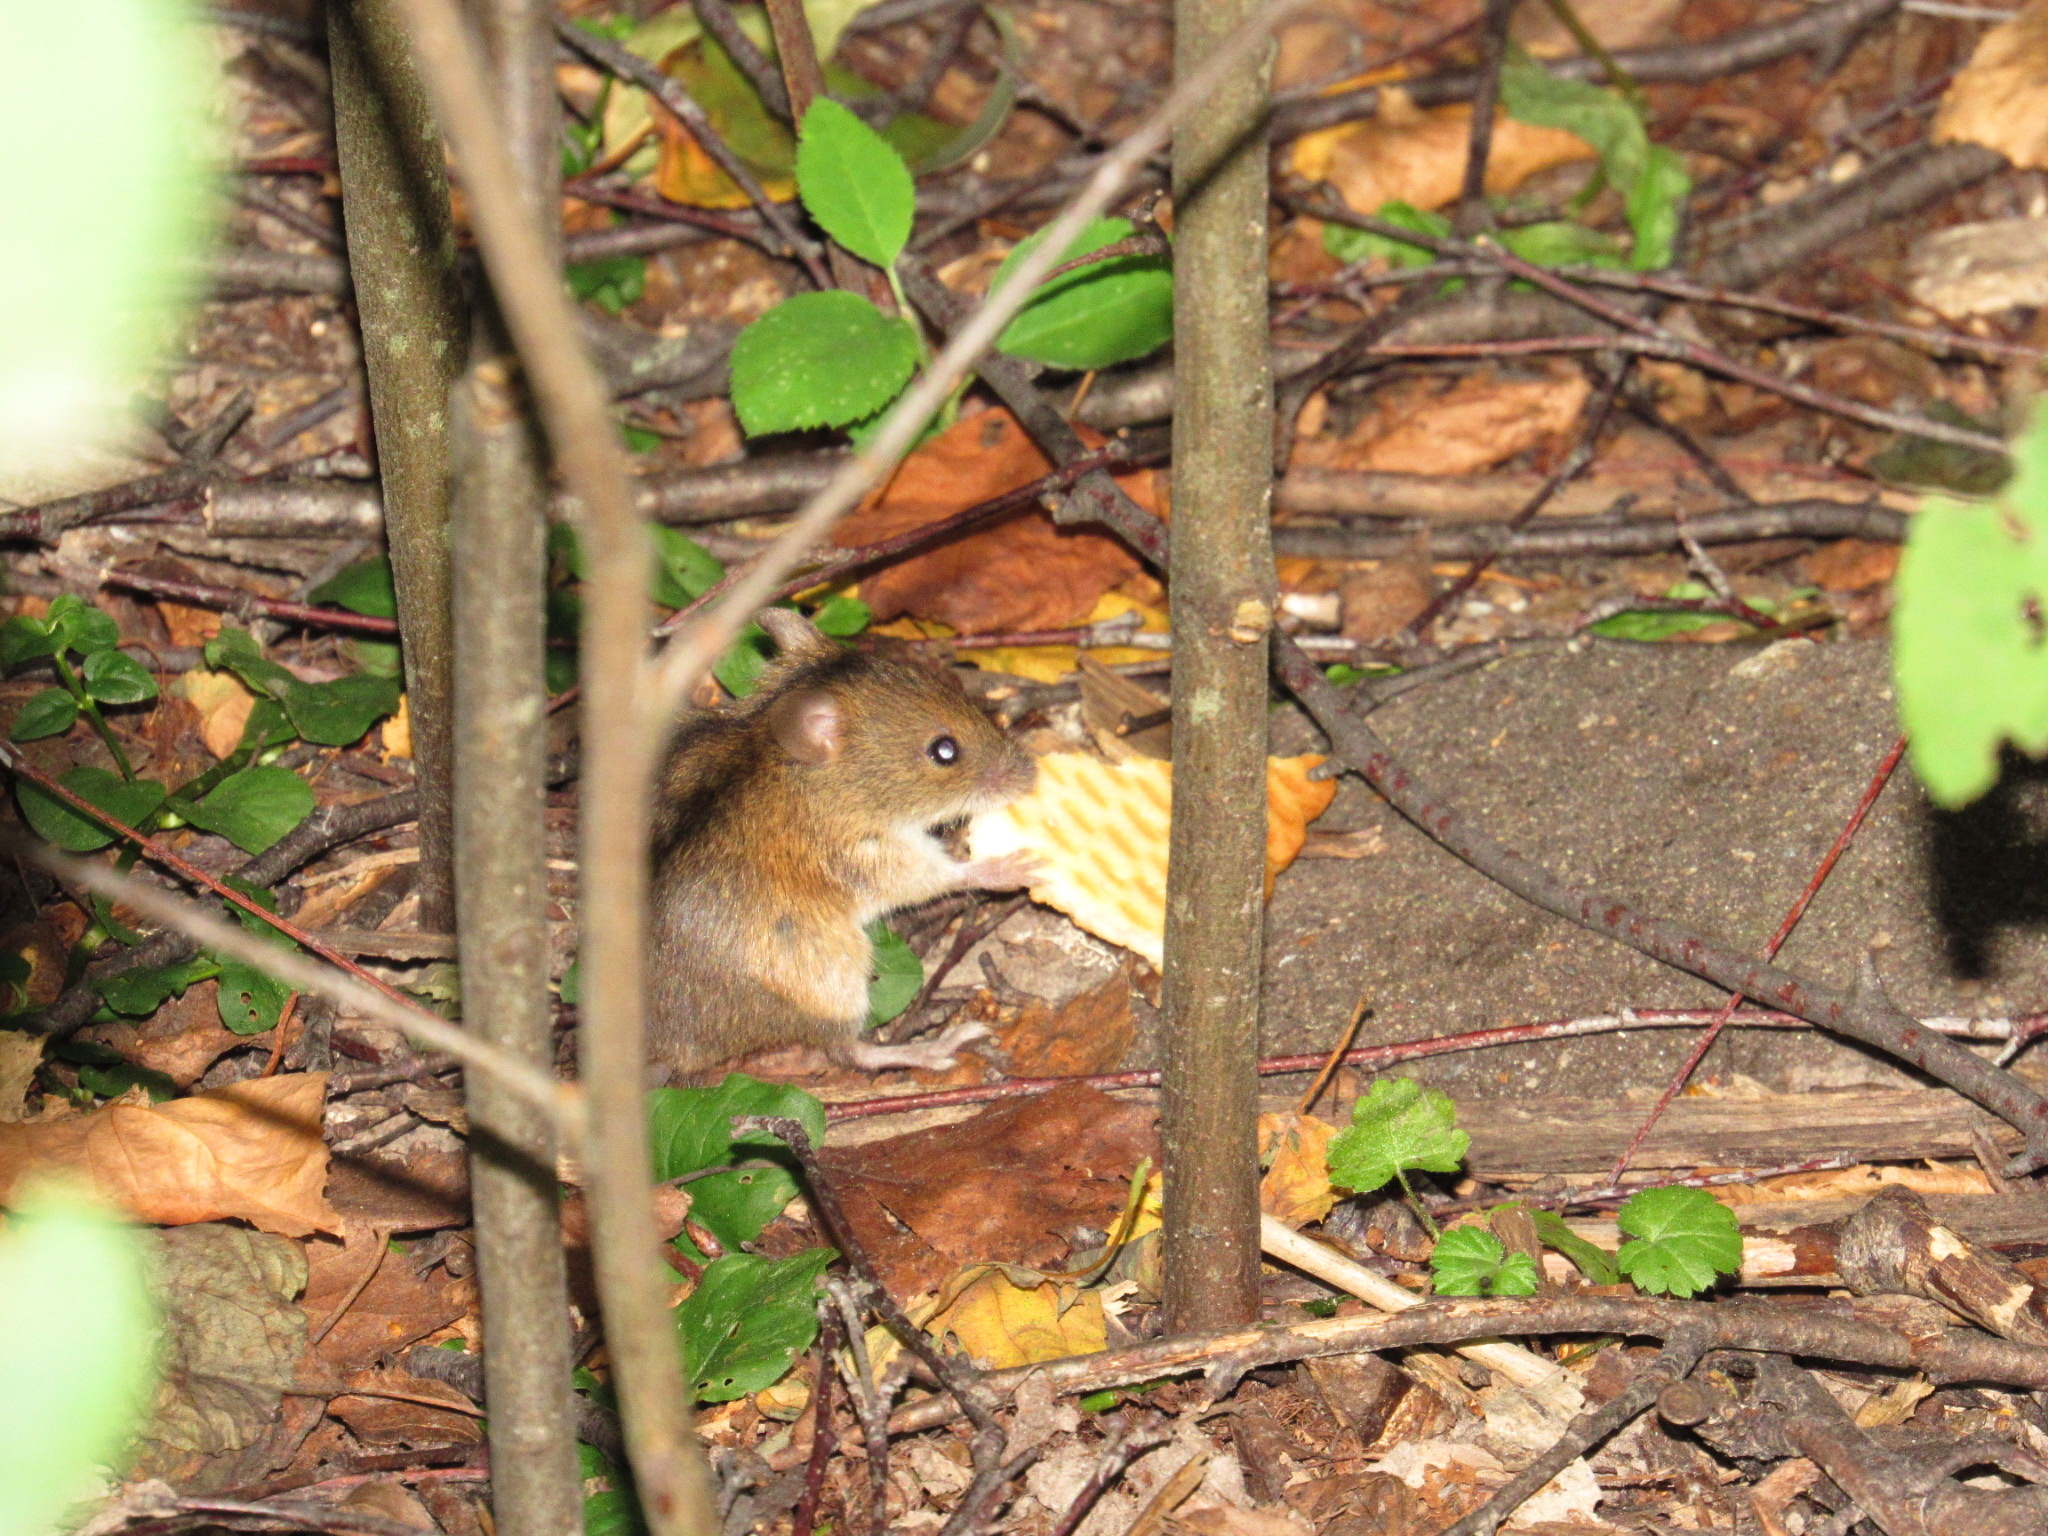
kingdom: Animalia
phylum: Chordata
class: Mammalia
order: Rodentia
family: Muridae
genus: Apodemus
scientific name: Apodemus agrarius
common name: Striped field mouse
